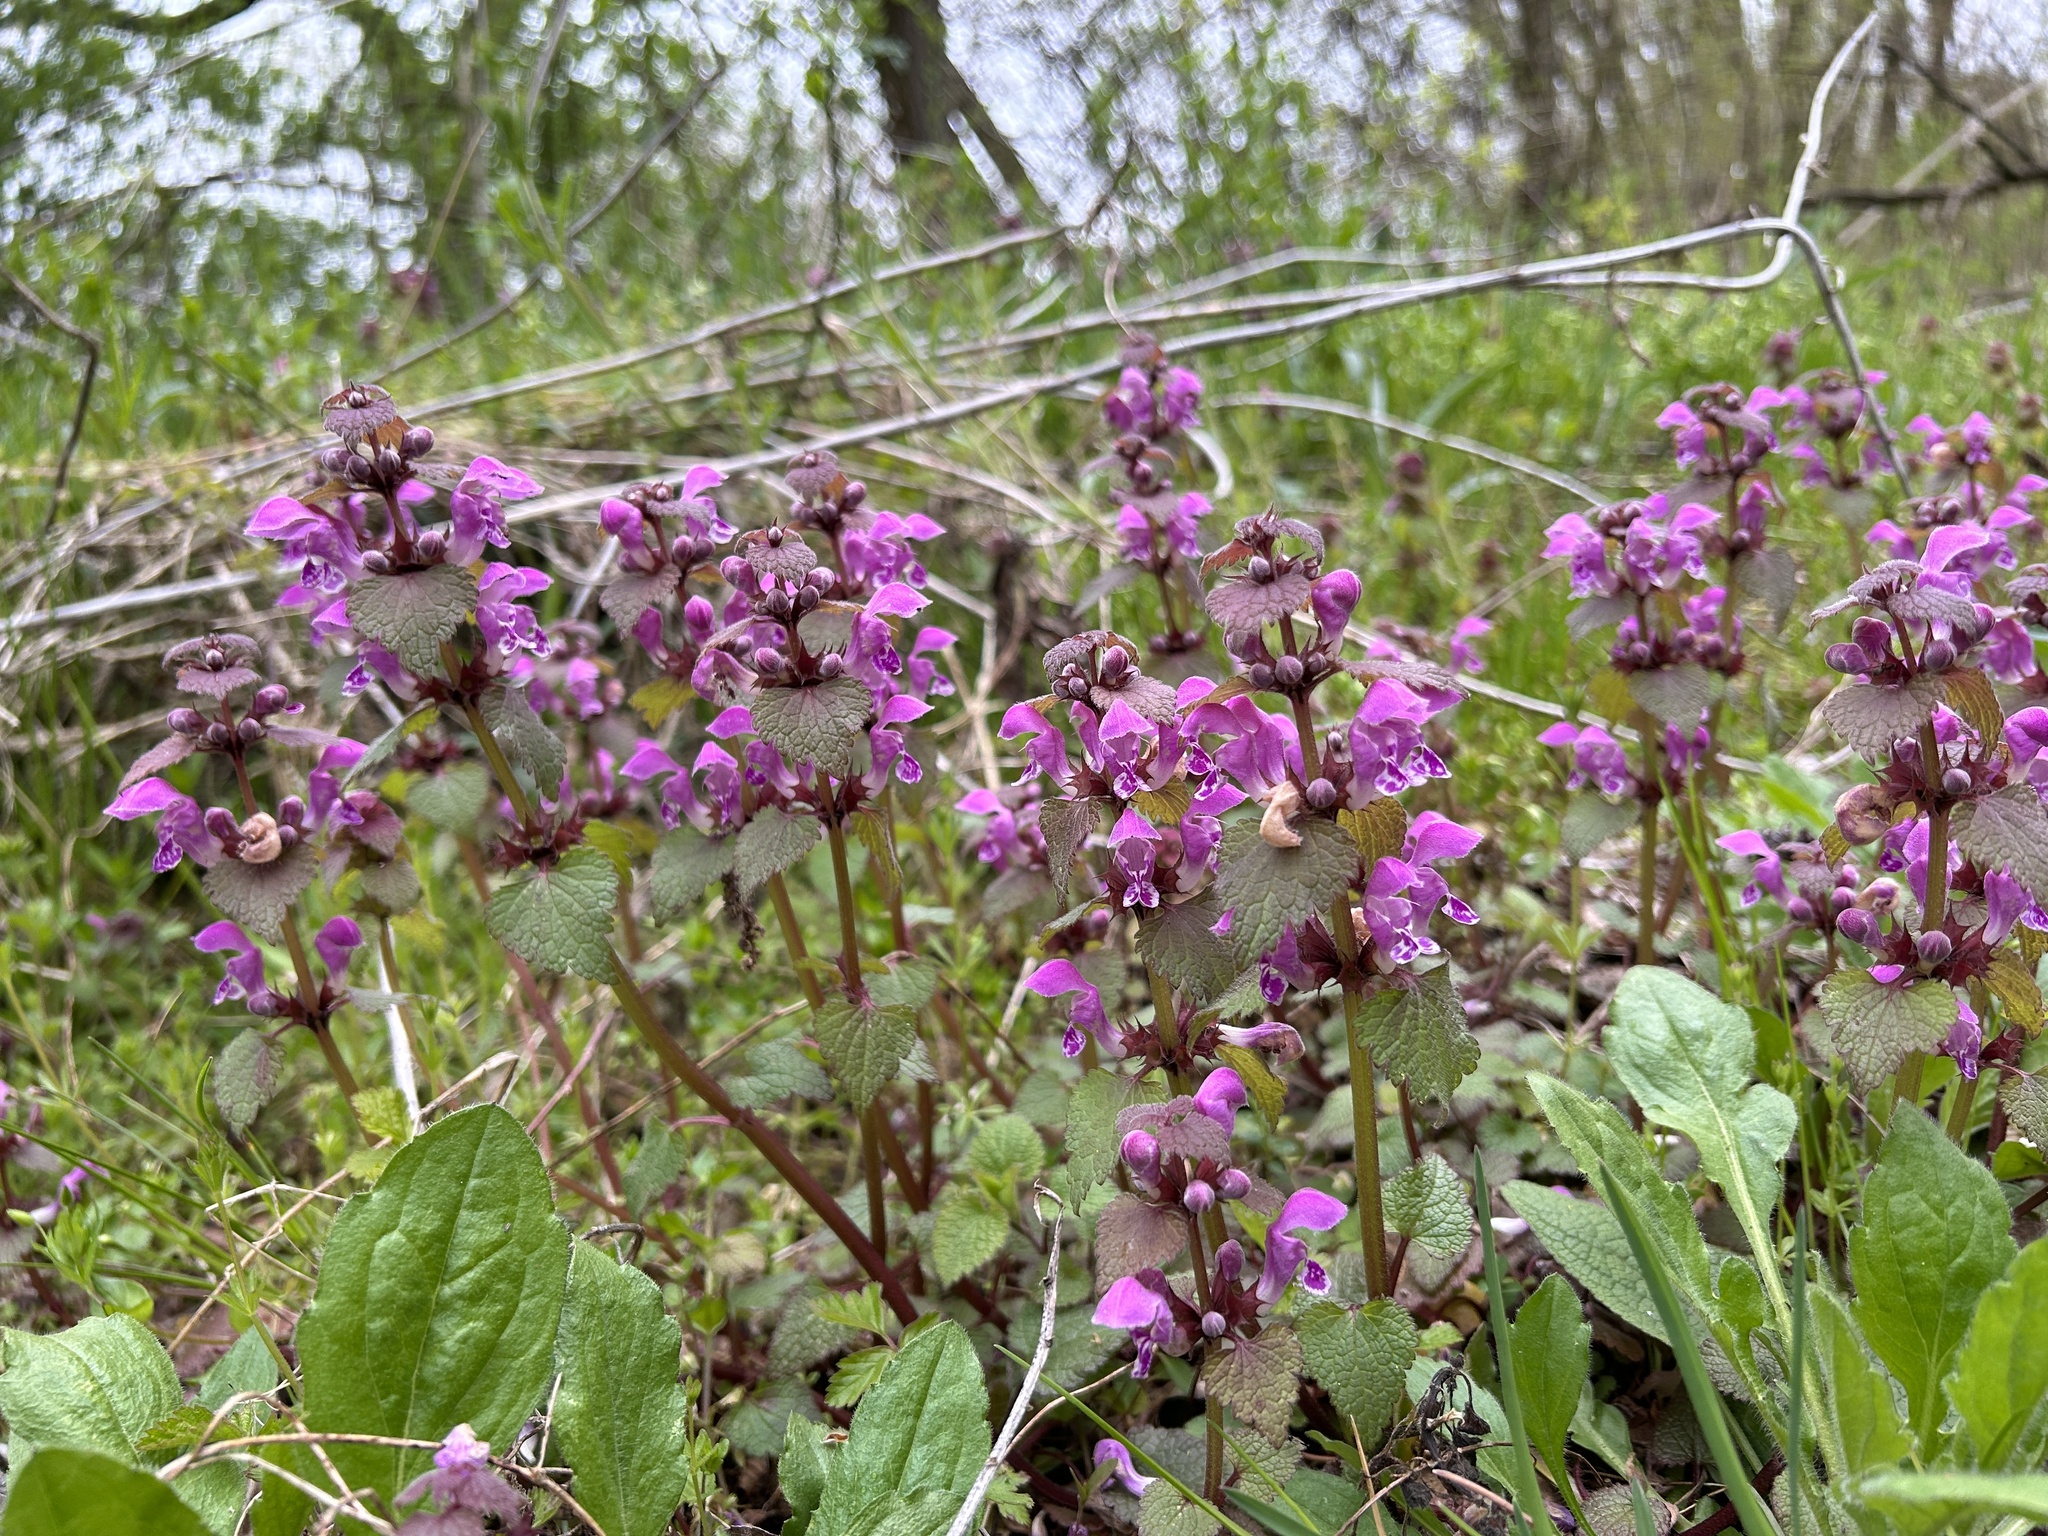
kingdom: Plantae
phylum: Tracheophyta
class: Magnoliopsida
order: Lamiales
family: Lamiaceae
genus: Lamium
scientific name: Lamium maculatum
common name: Spotted dead-nettle
